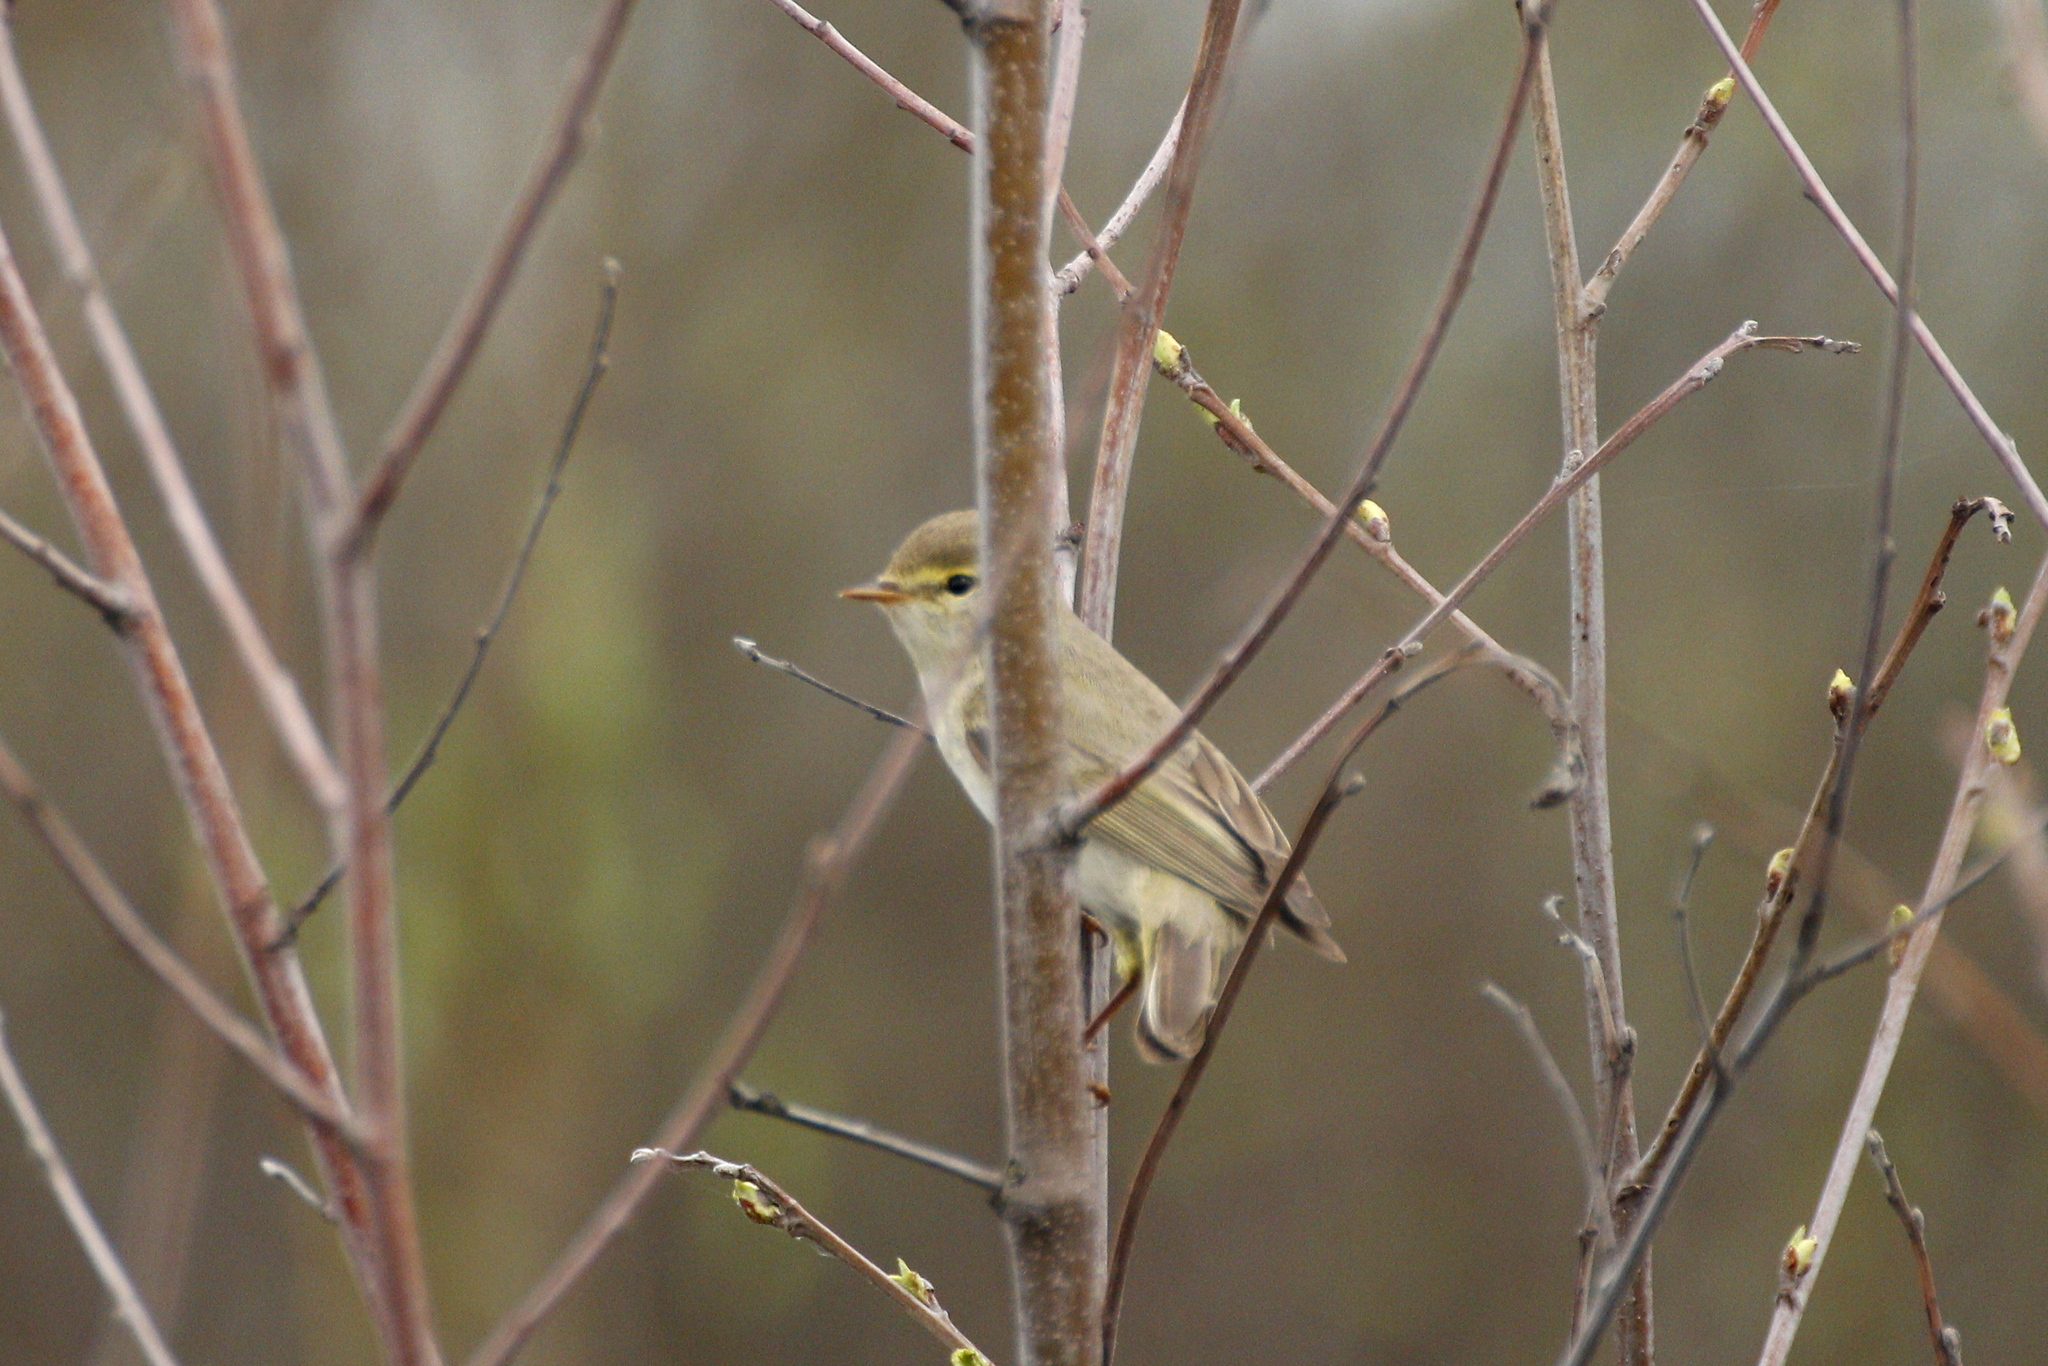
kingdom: Animalia
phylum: Chordata
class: Aves
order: Passeriformes
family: Phylloscopidae
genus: Phylloscopus
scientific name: Phylloscopus trochilus
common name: Willow warbler
